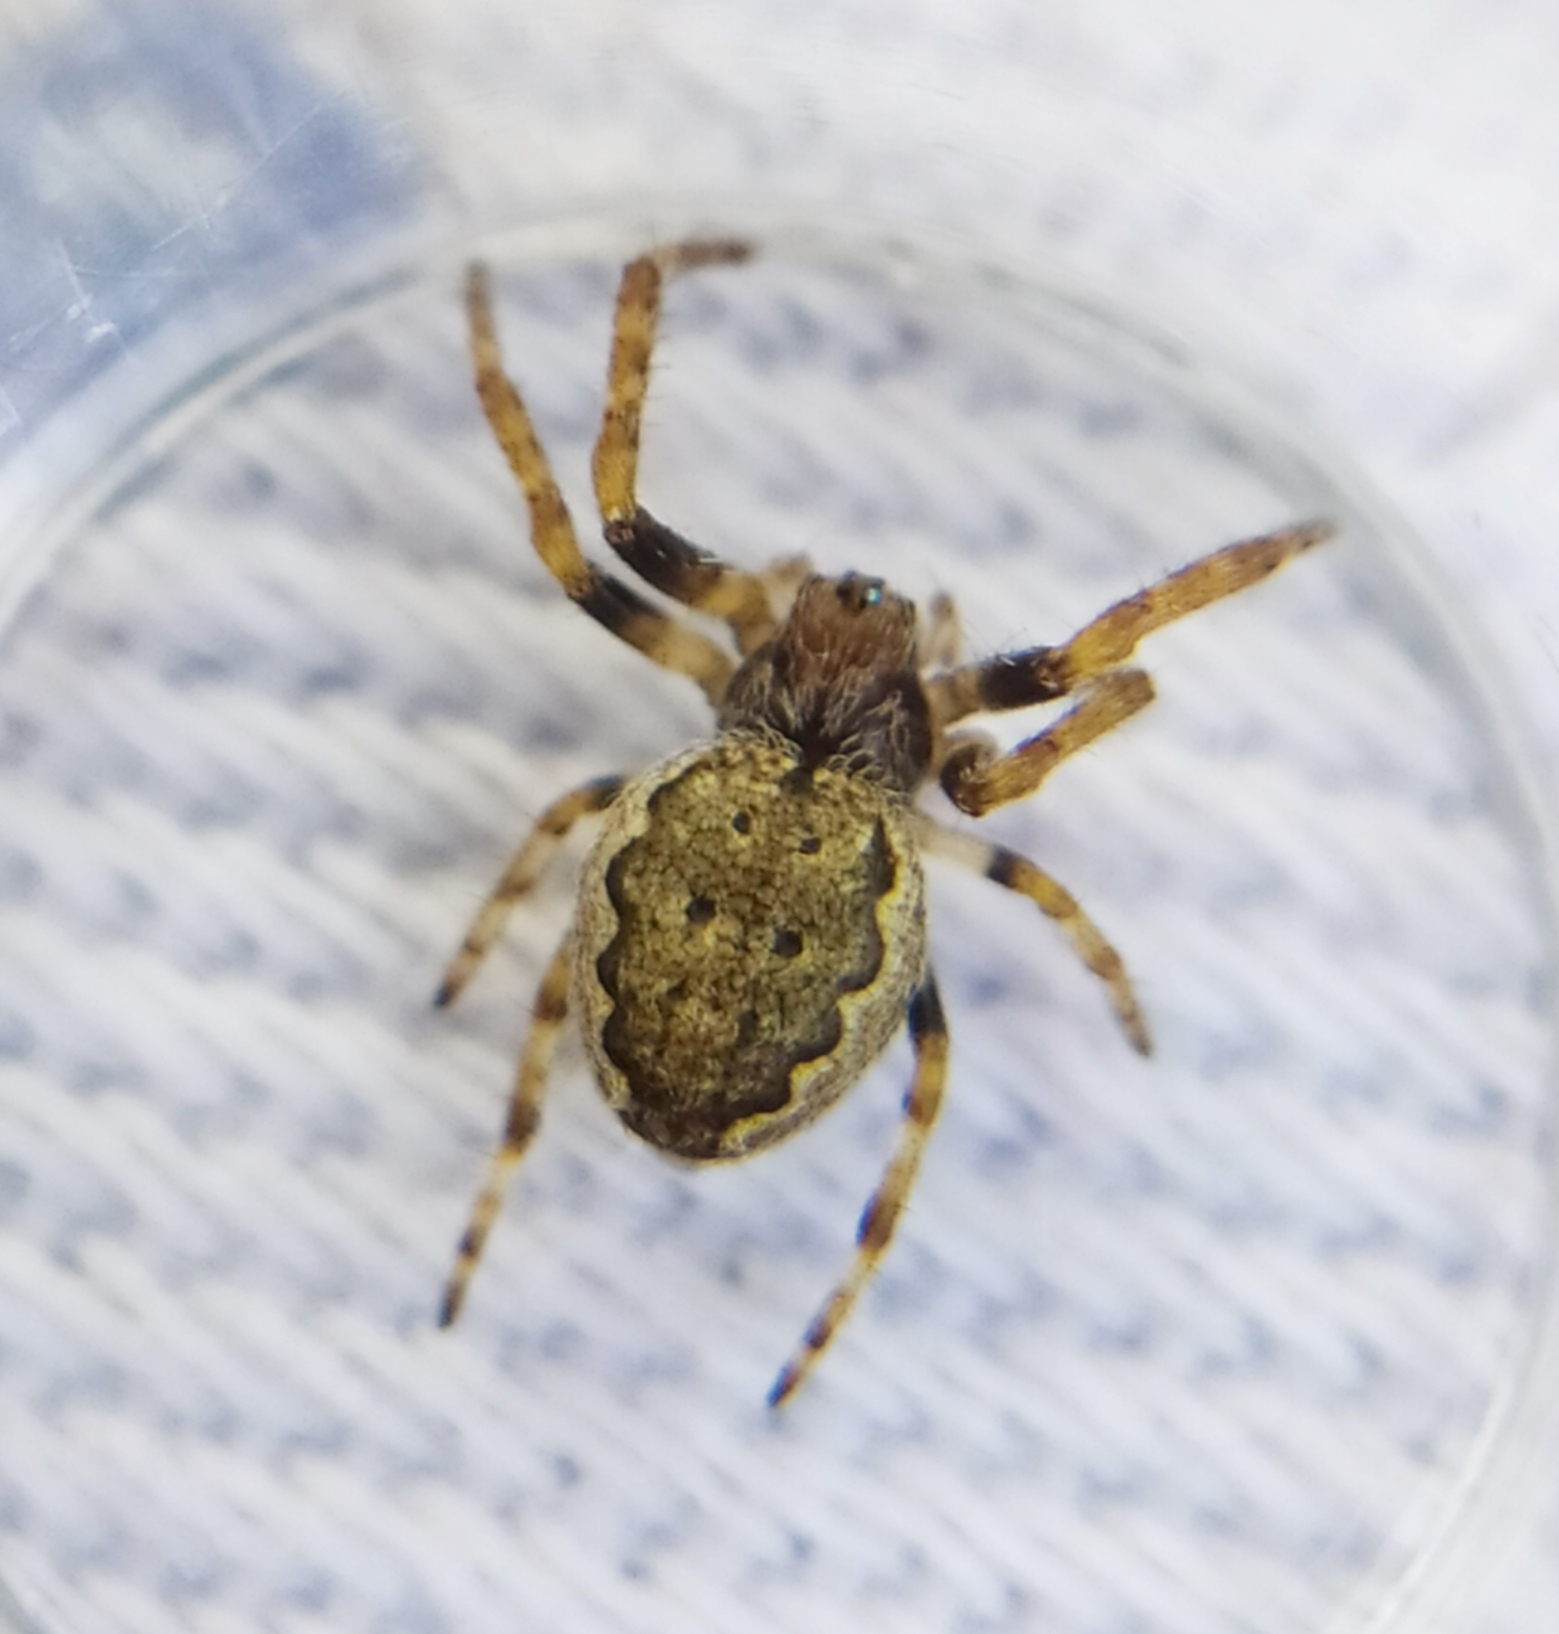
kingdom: Animalia
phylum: Arthropoda
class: Arachnida
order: Araneae
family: Araneidae
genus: Nuctenea
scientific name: Nuctenea umbratica
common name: Toad spider
